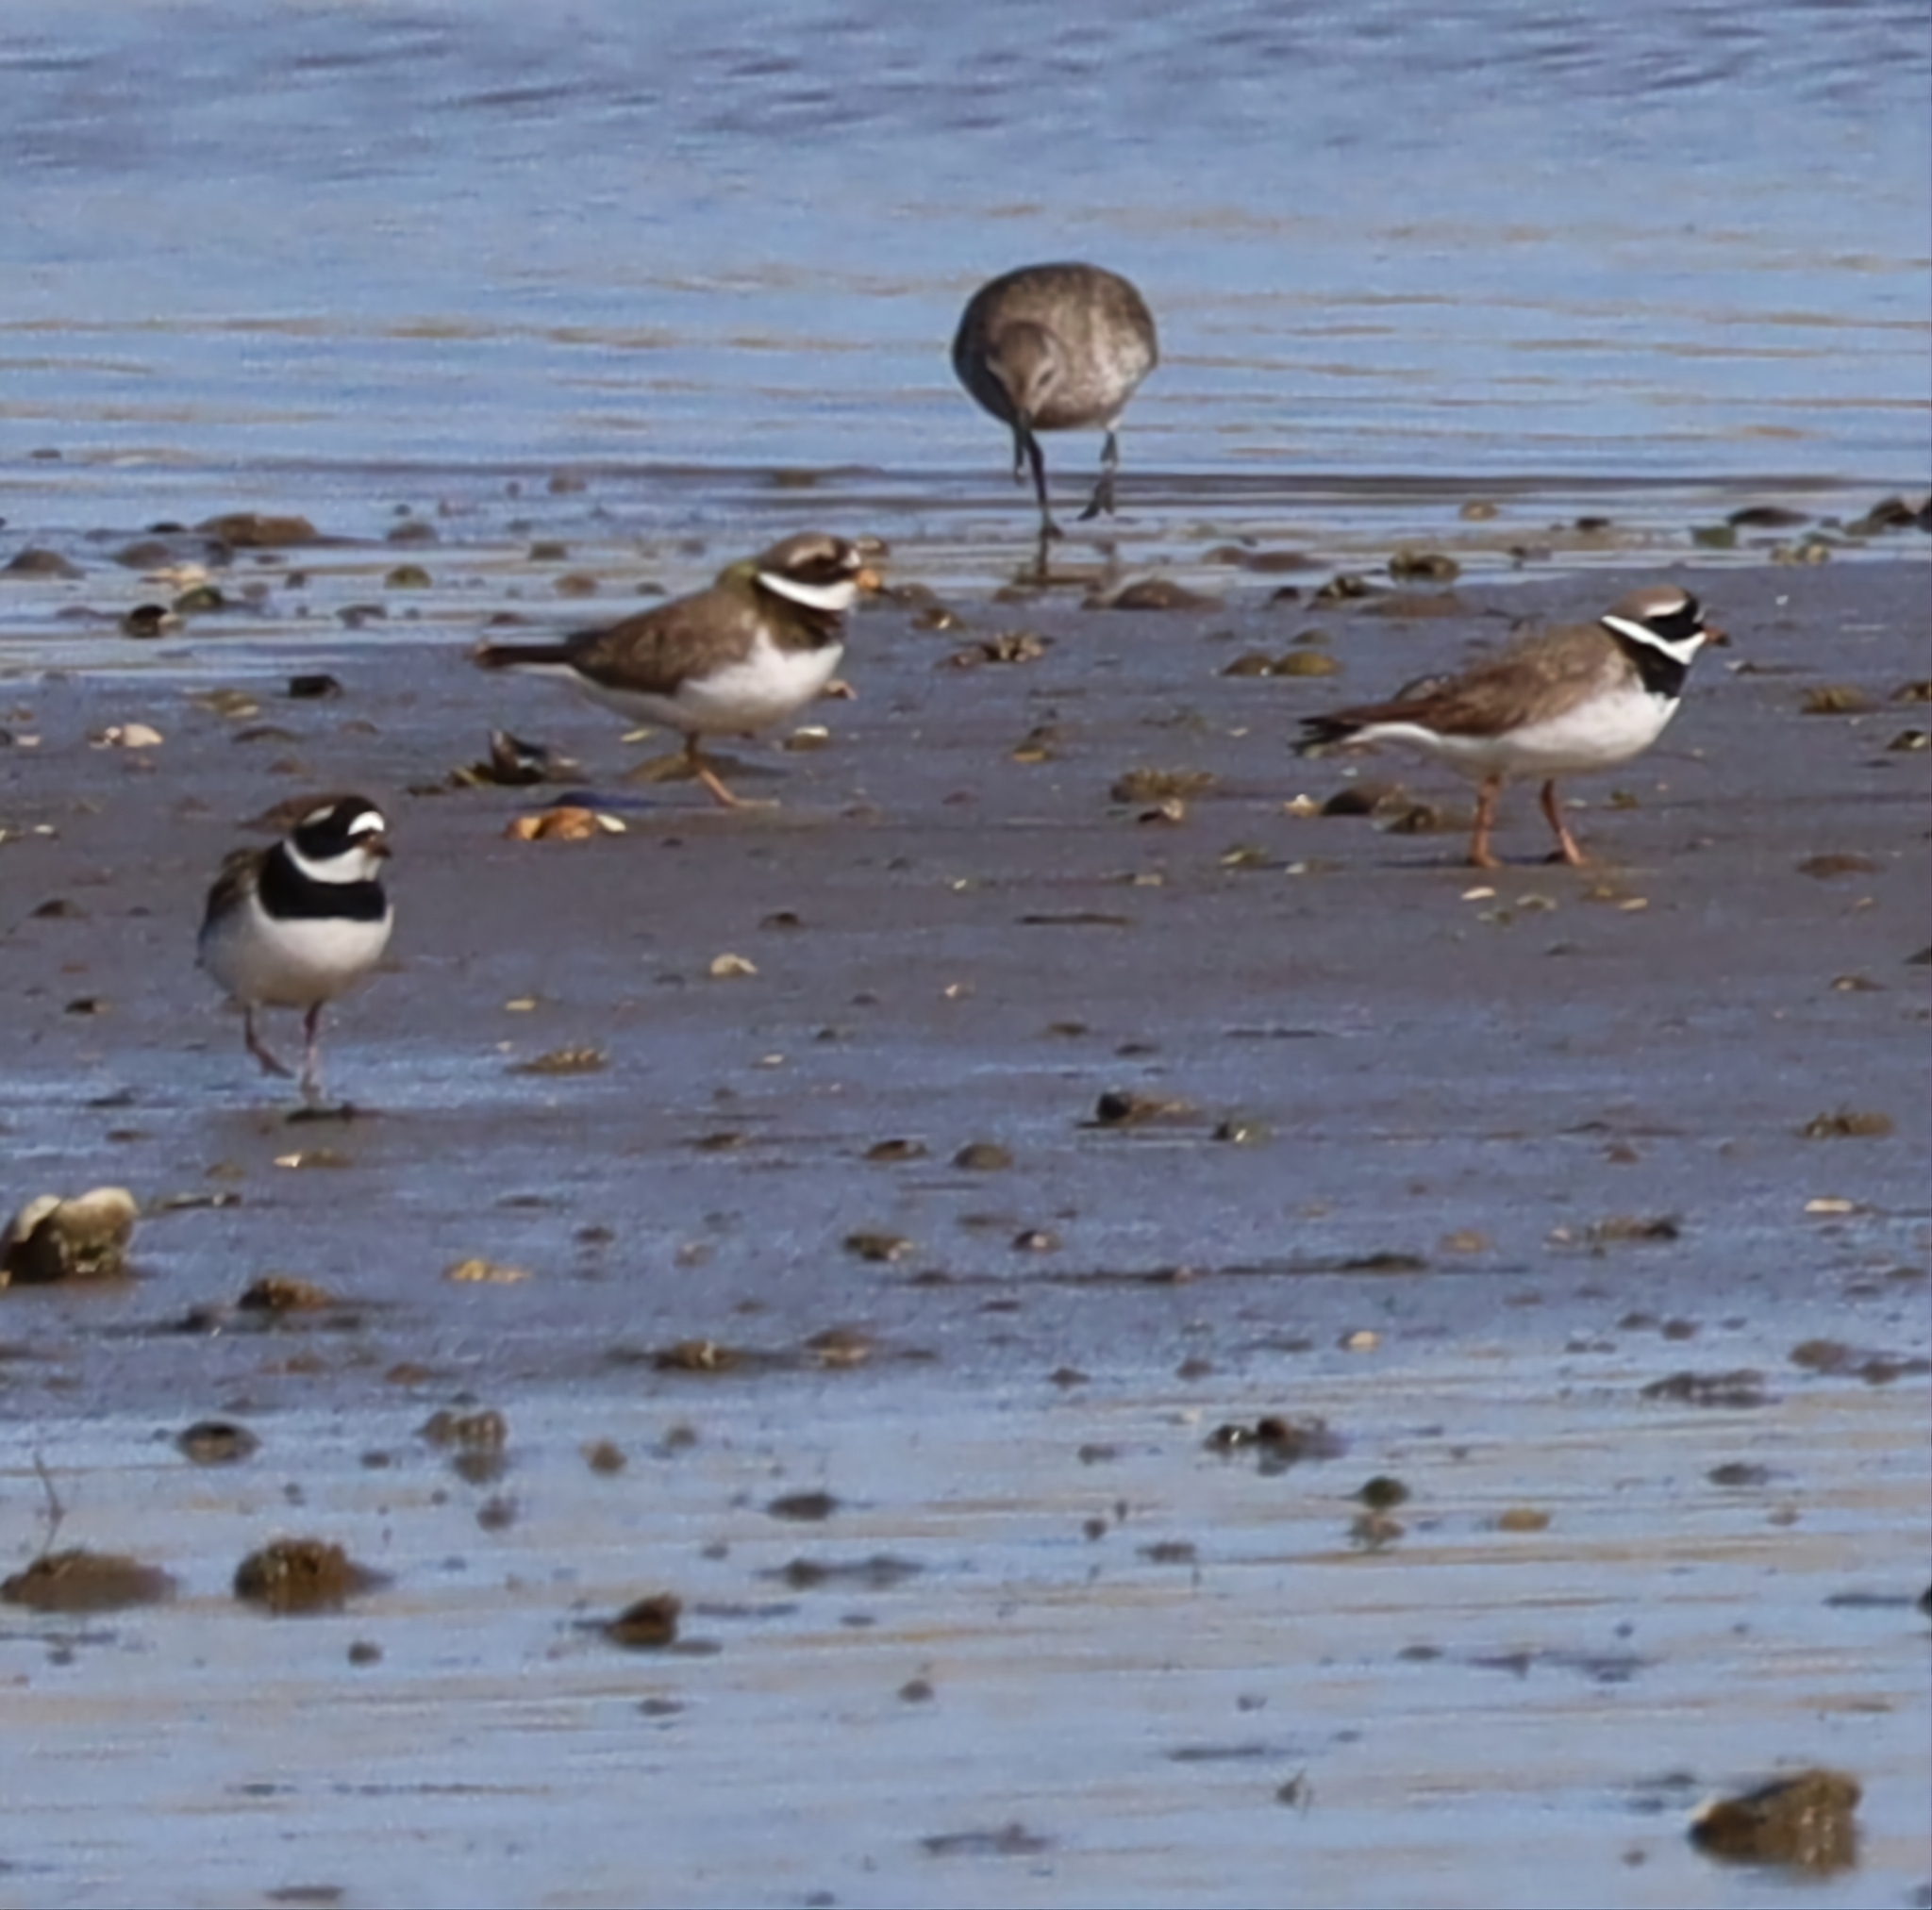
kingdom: Animalia
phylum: Chordata
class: Aves
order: Charadriiformes
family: Charadriidae
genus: Charadrius
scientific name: Charadrius hiaticula
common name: Common ringed plover
